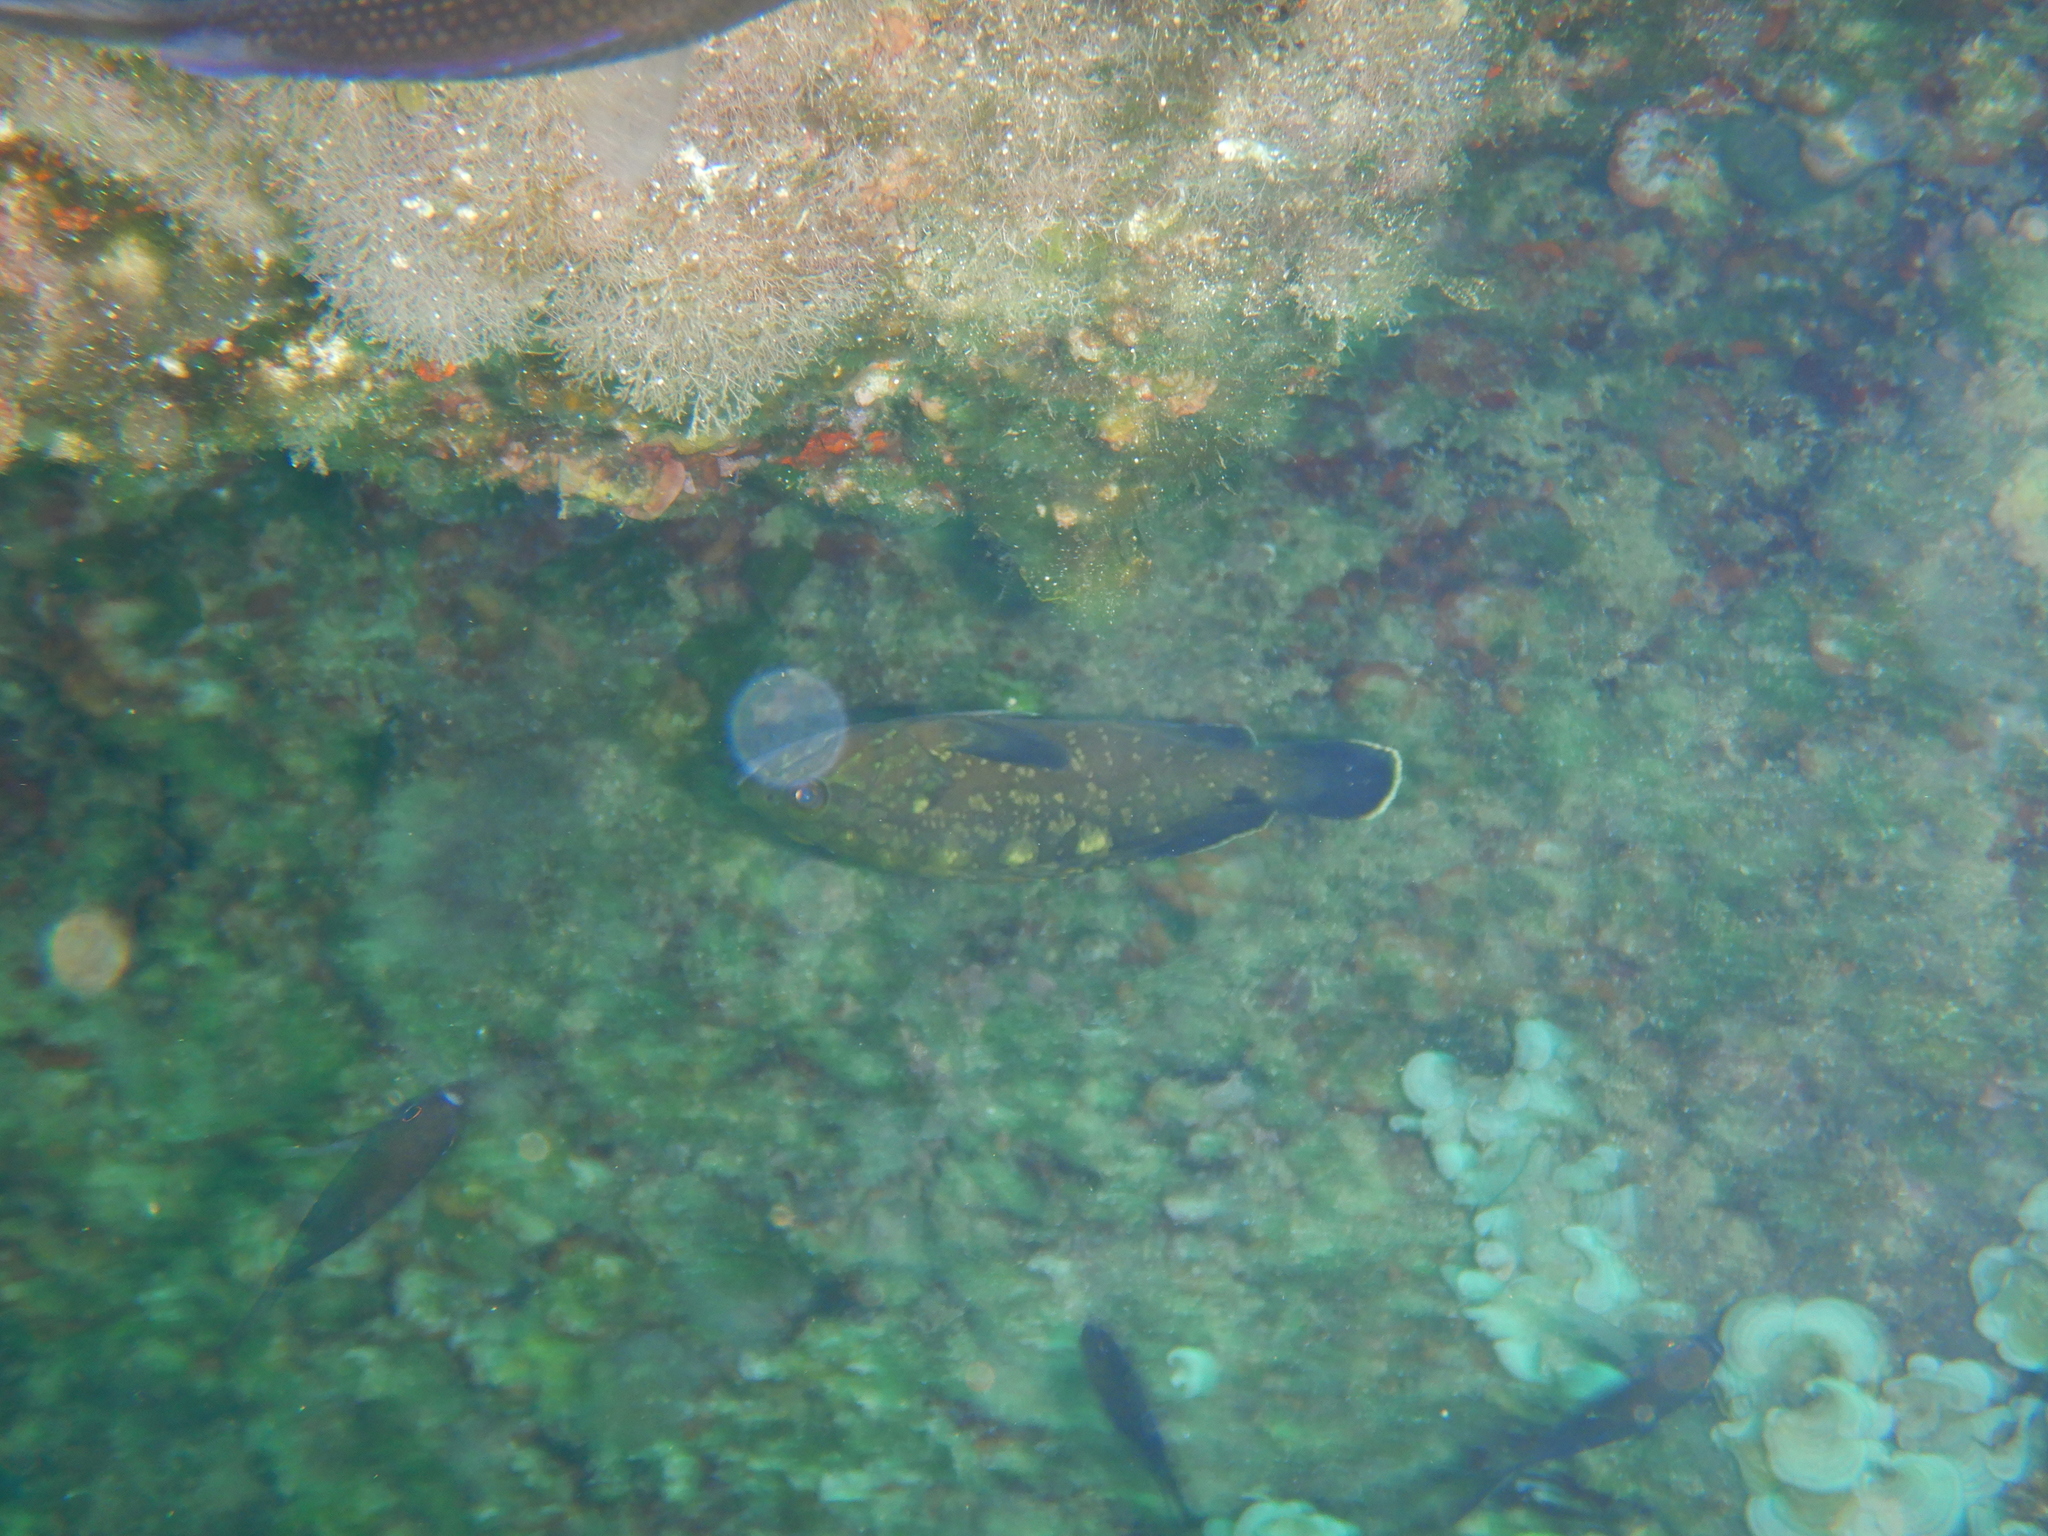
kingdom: Animalia
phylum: Chordata
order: Perciformes
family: Serranidae
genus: Epinephelus
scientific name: Epinephelus marginatus
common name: Dusky grouper
